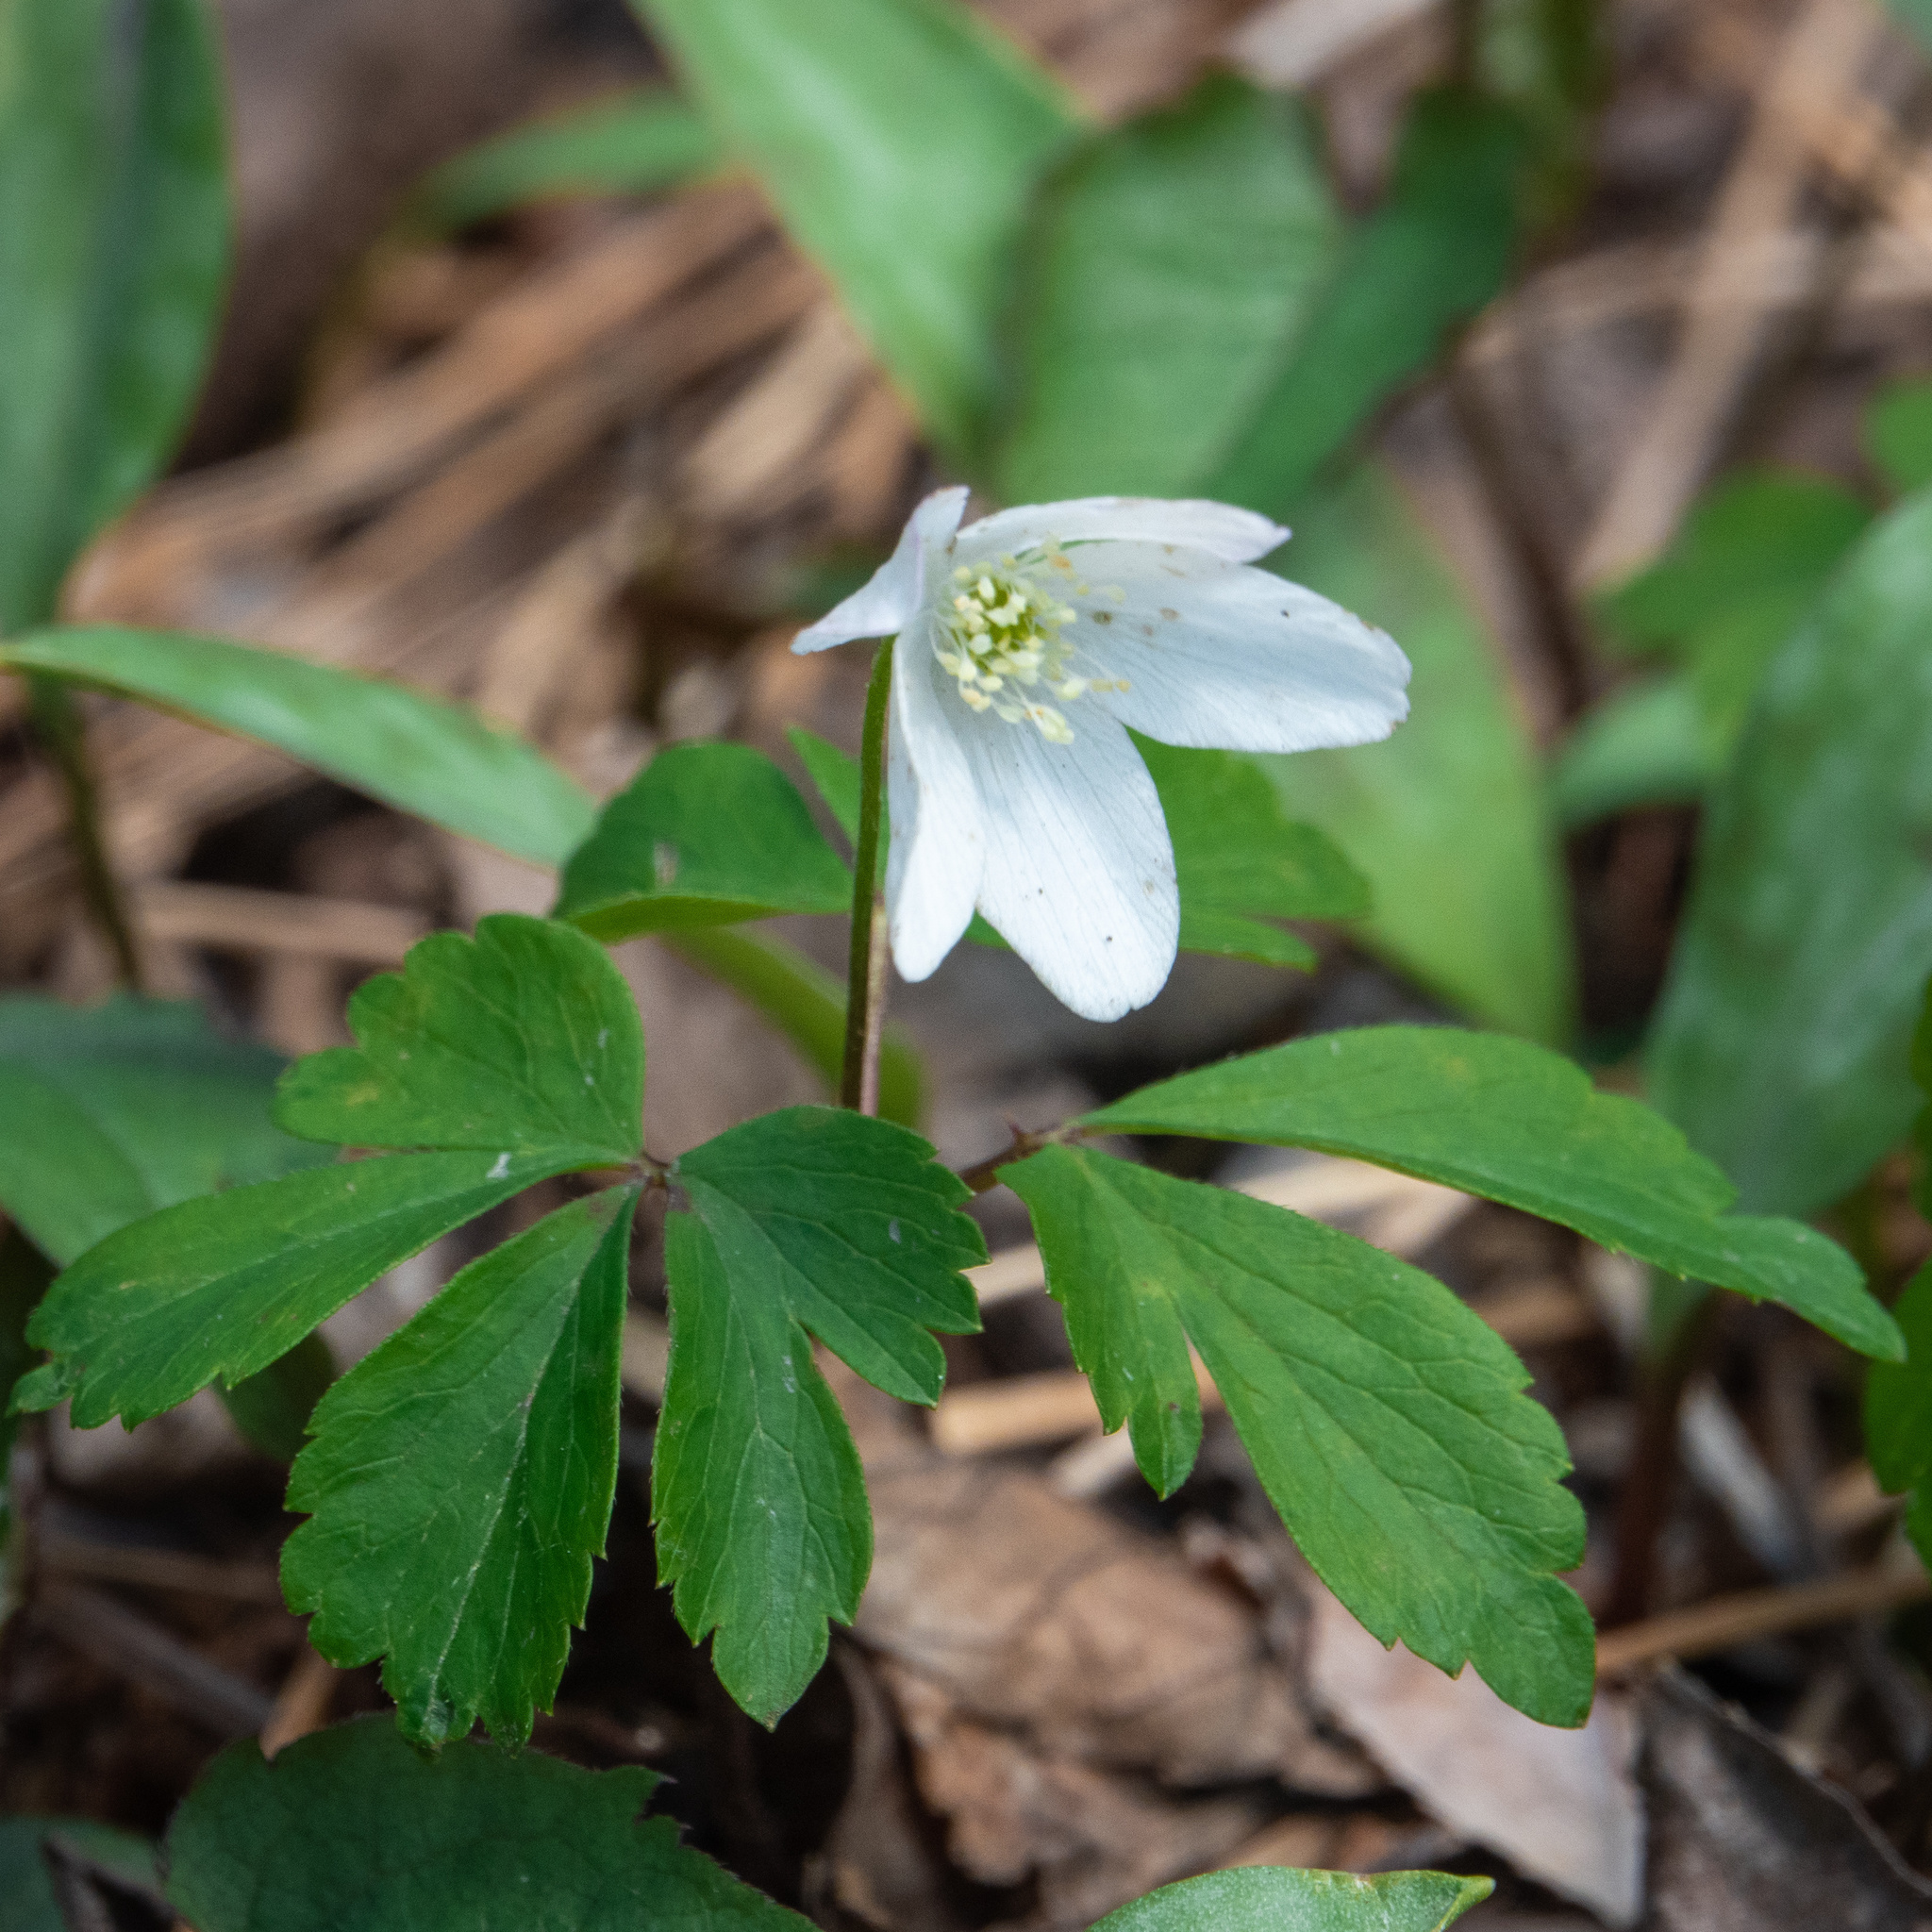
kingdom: Plantae
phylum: Tracheophyta
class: Magnoliopsida
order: Ranunculales
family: Ranunculaceae
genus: Anemone
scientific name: Anemone quinquefolia
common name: Wood anemone
